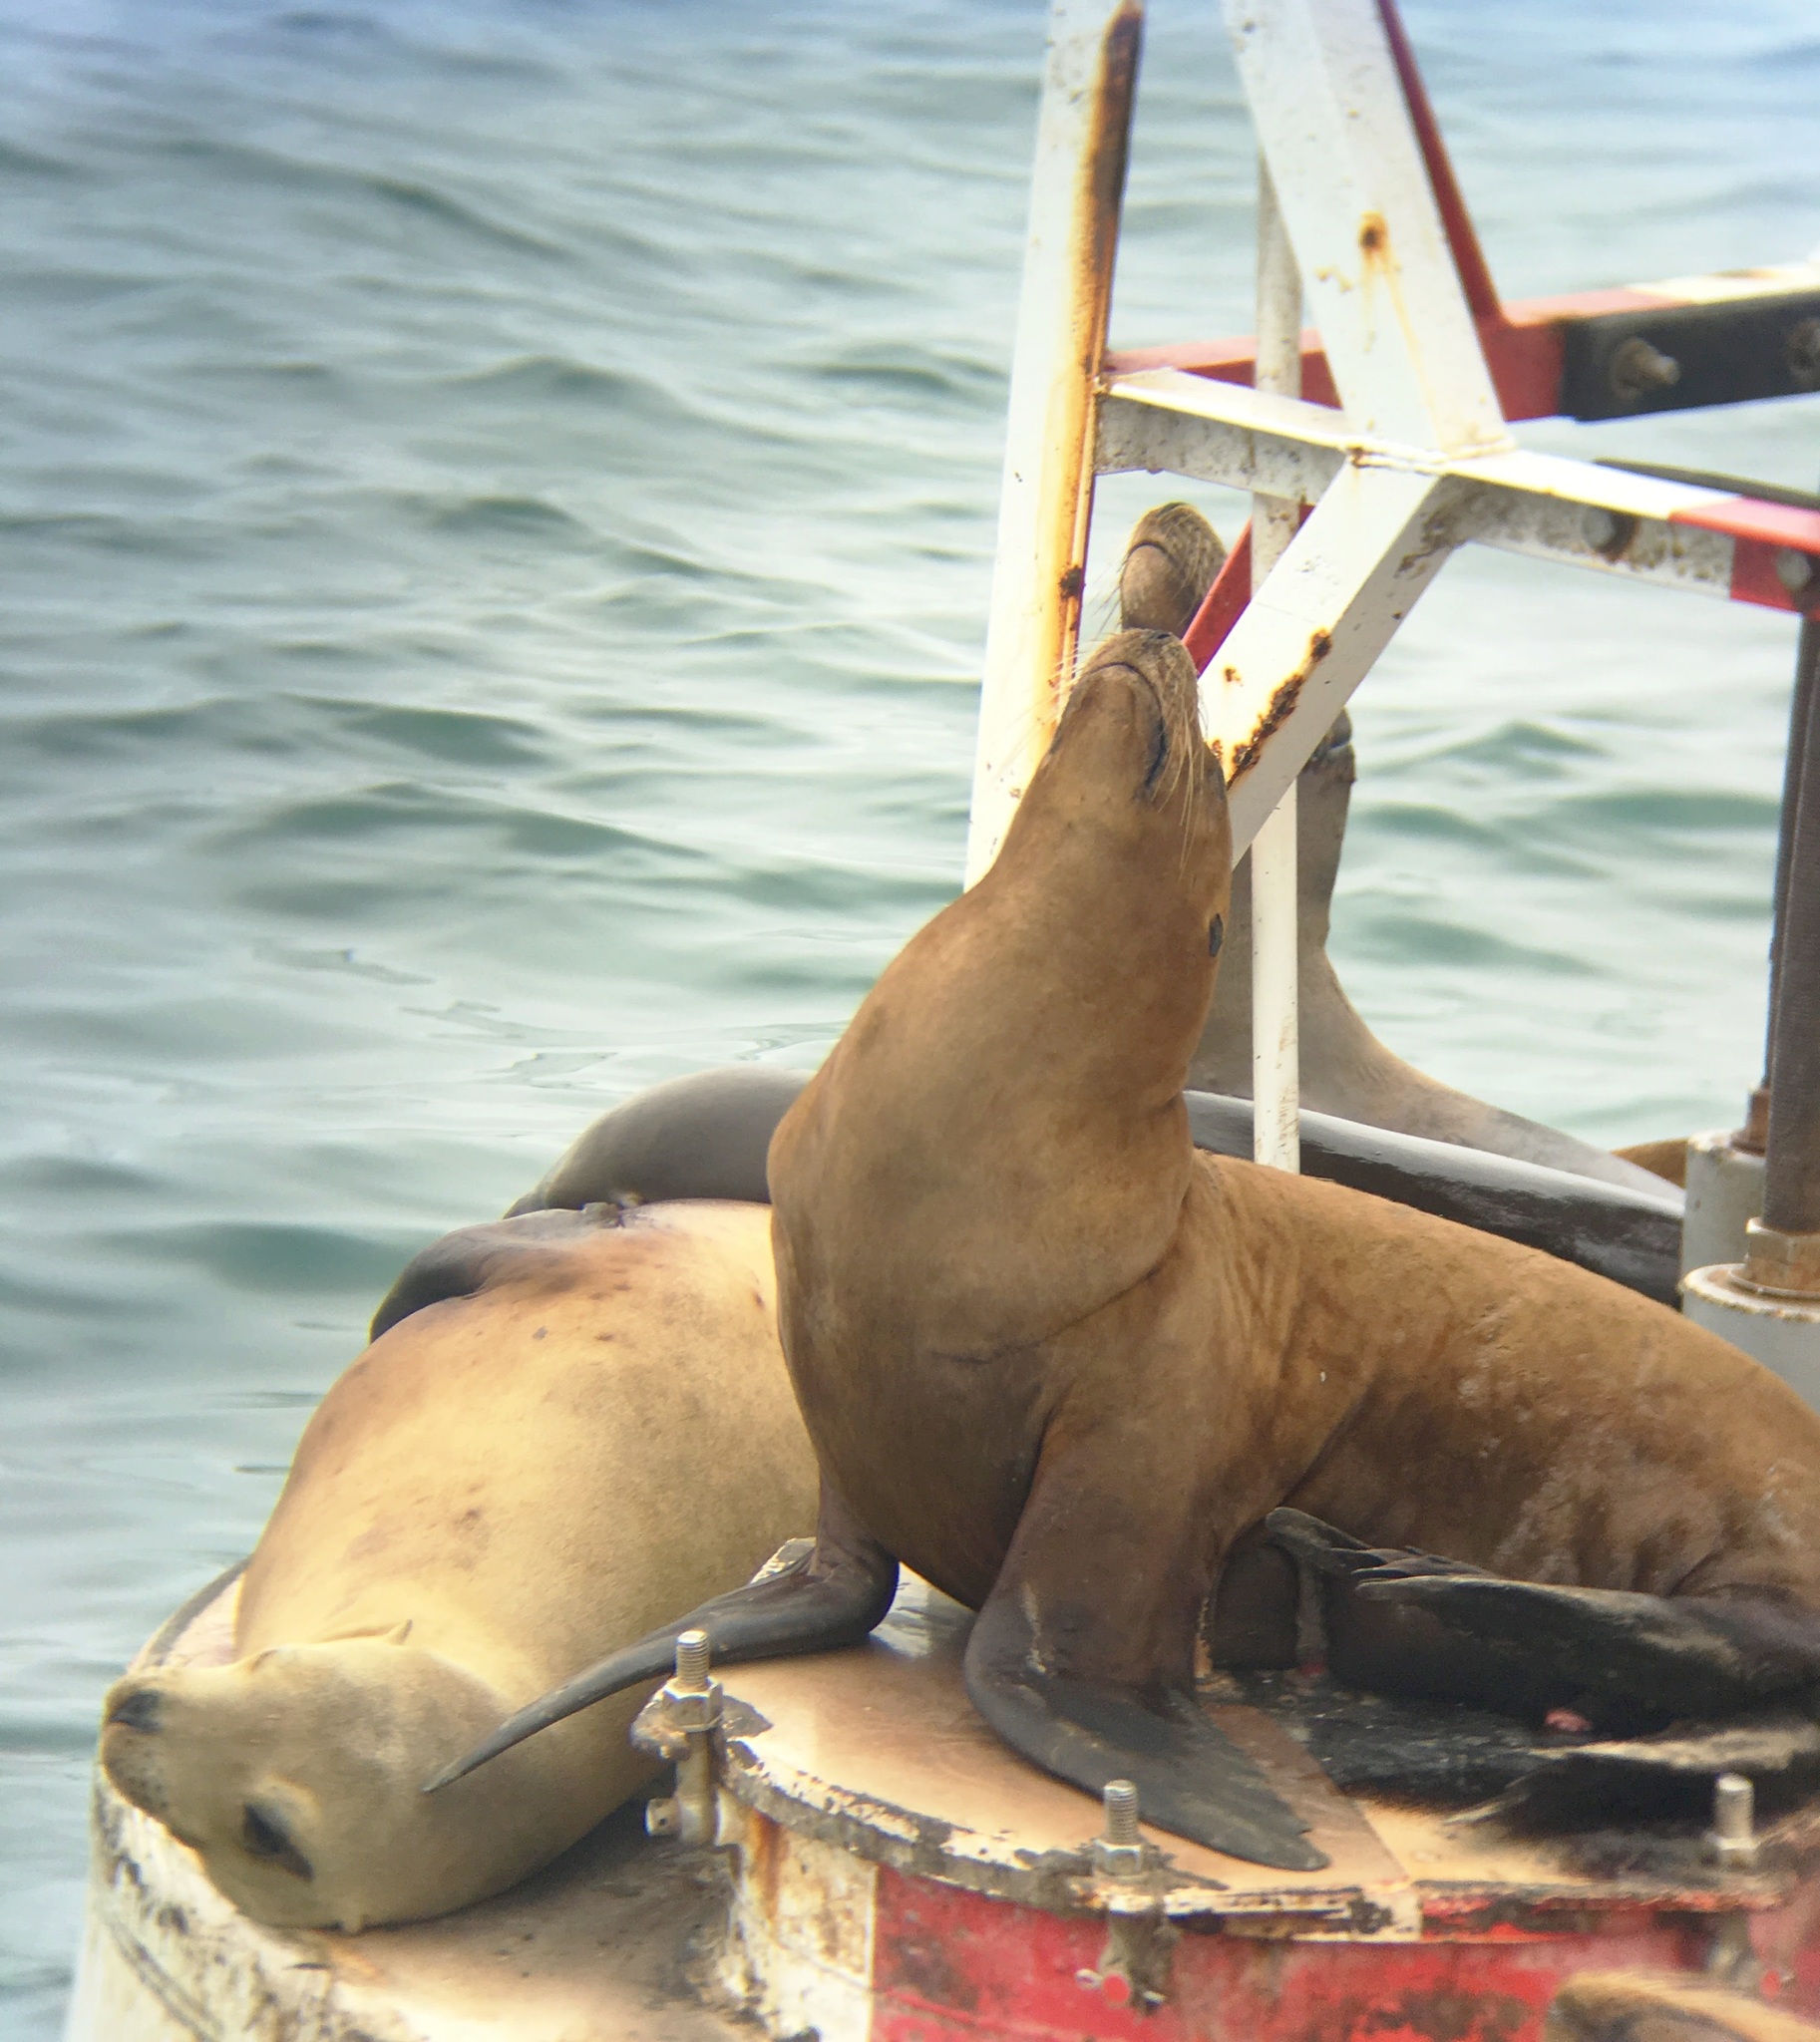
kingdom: Animalia
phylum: Chordata
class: Mammalia
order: Carnivora
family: Otariidae
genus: Zalophus
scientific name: Zalophus californianus
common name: California sea lion
